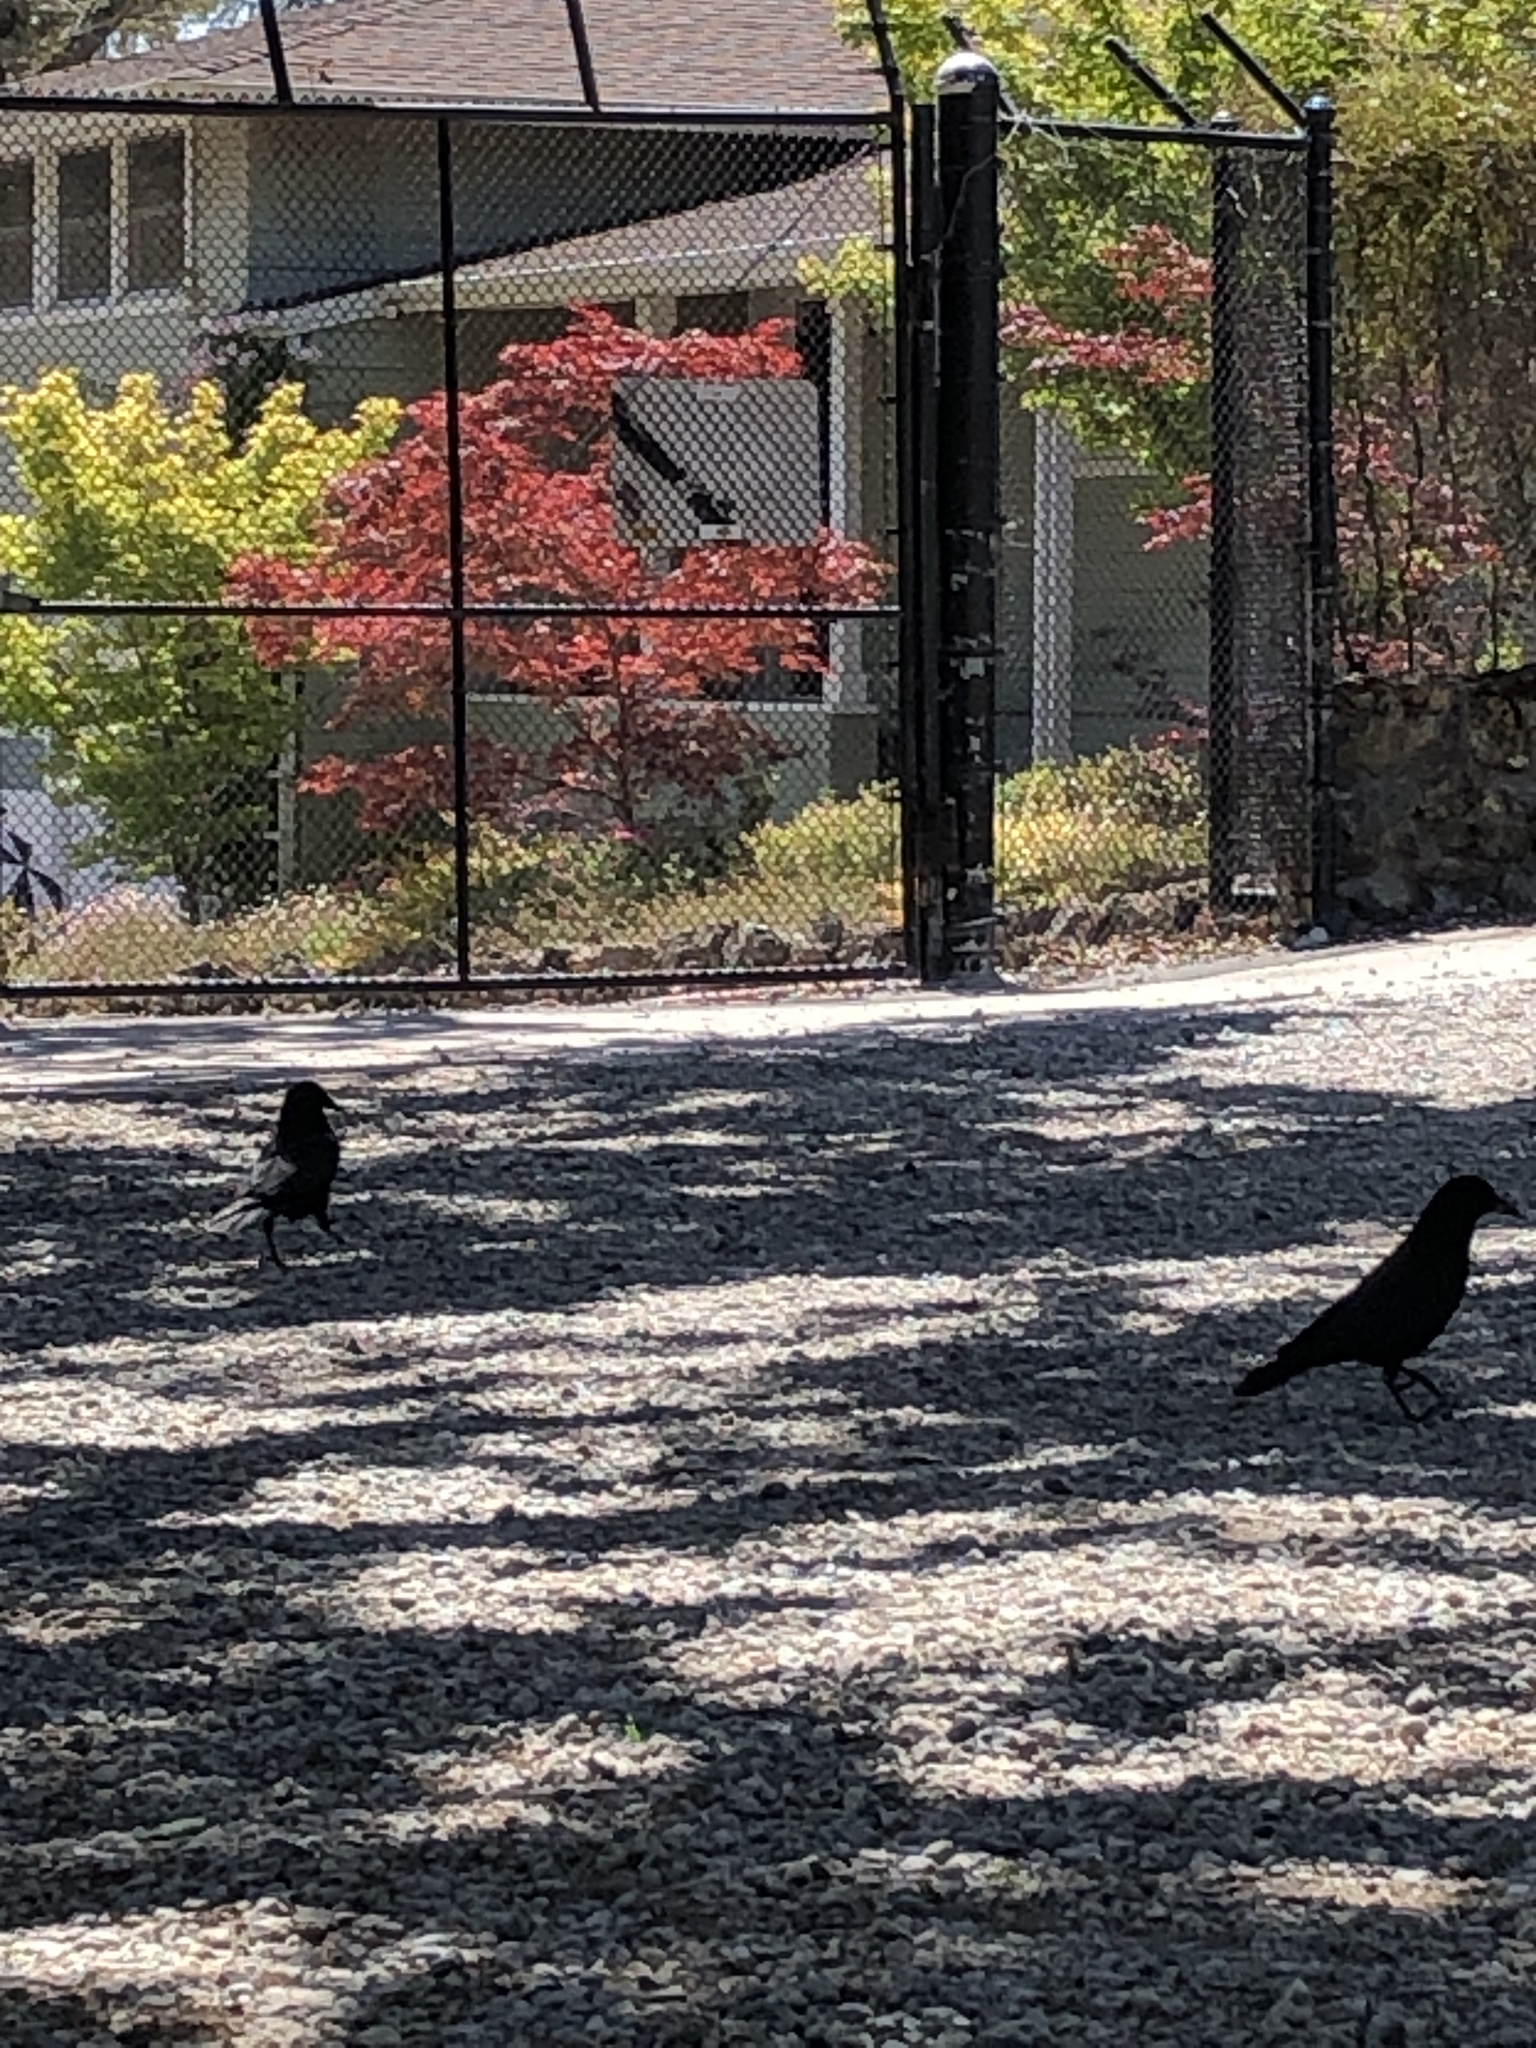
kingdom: Animalia
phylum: Chordata
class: Aves
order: Passeriformes
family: Corvidae
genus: Corvus
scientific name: Corvus brachyrhynchos
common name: American crow
